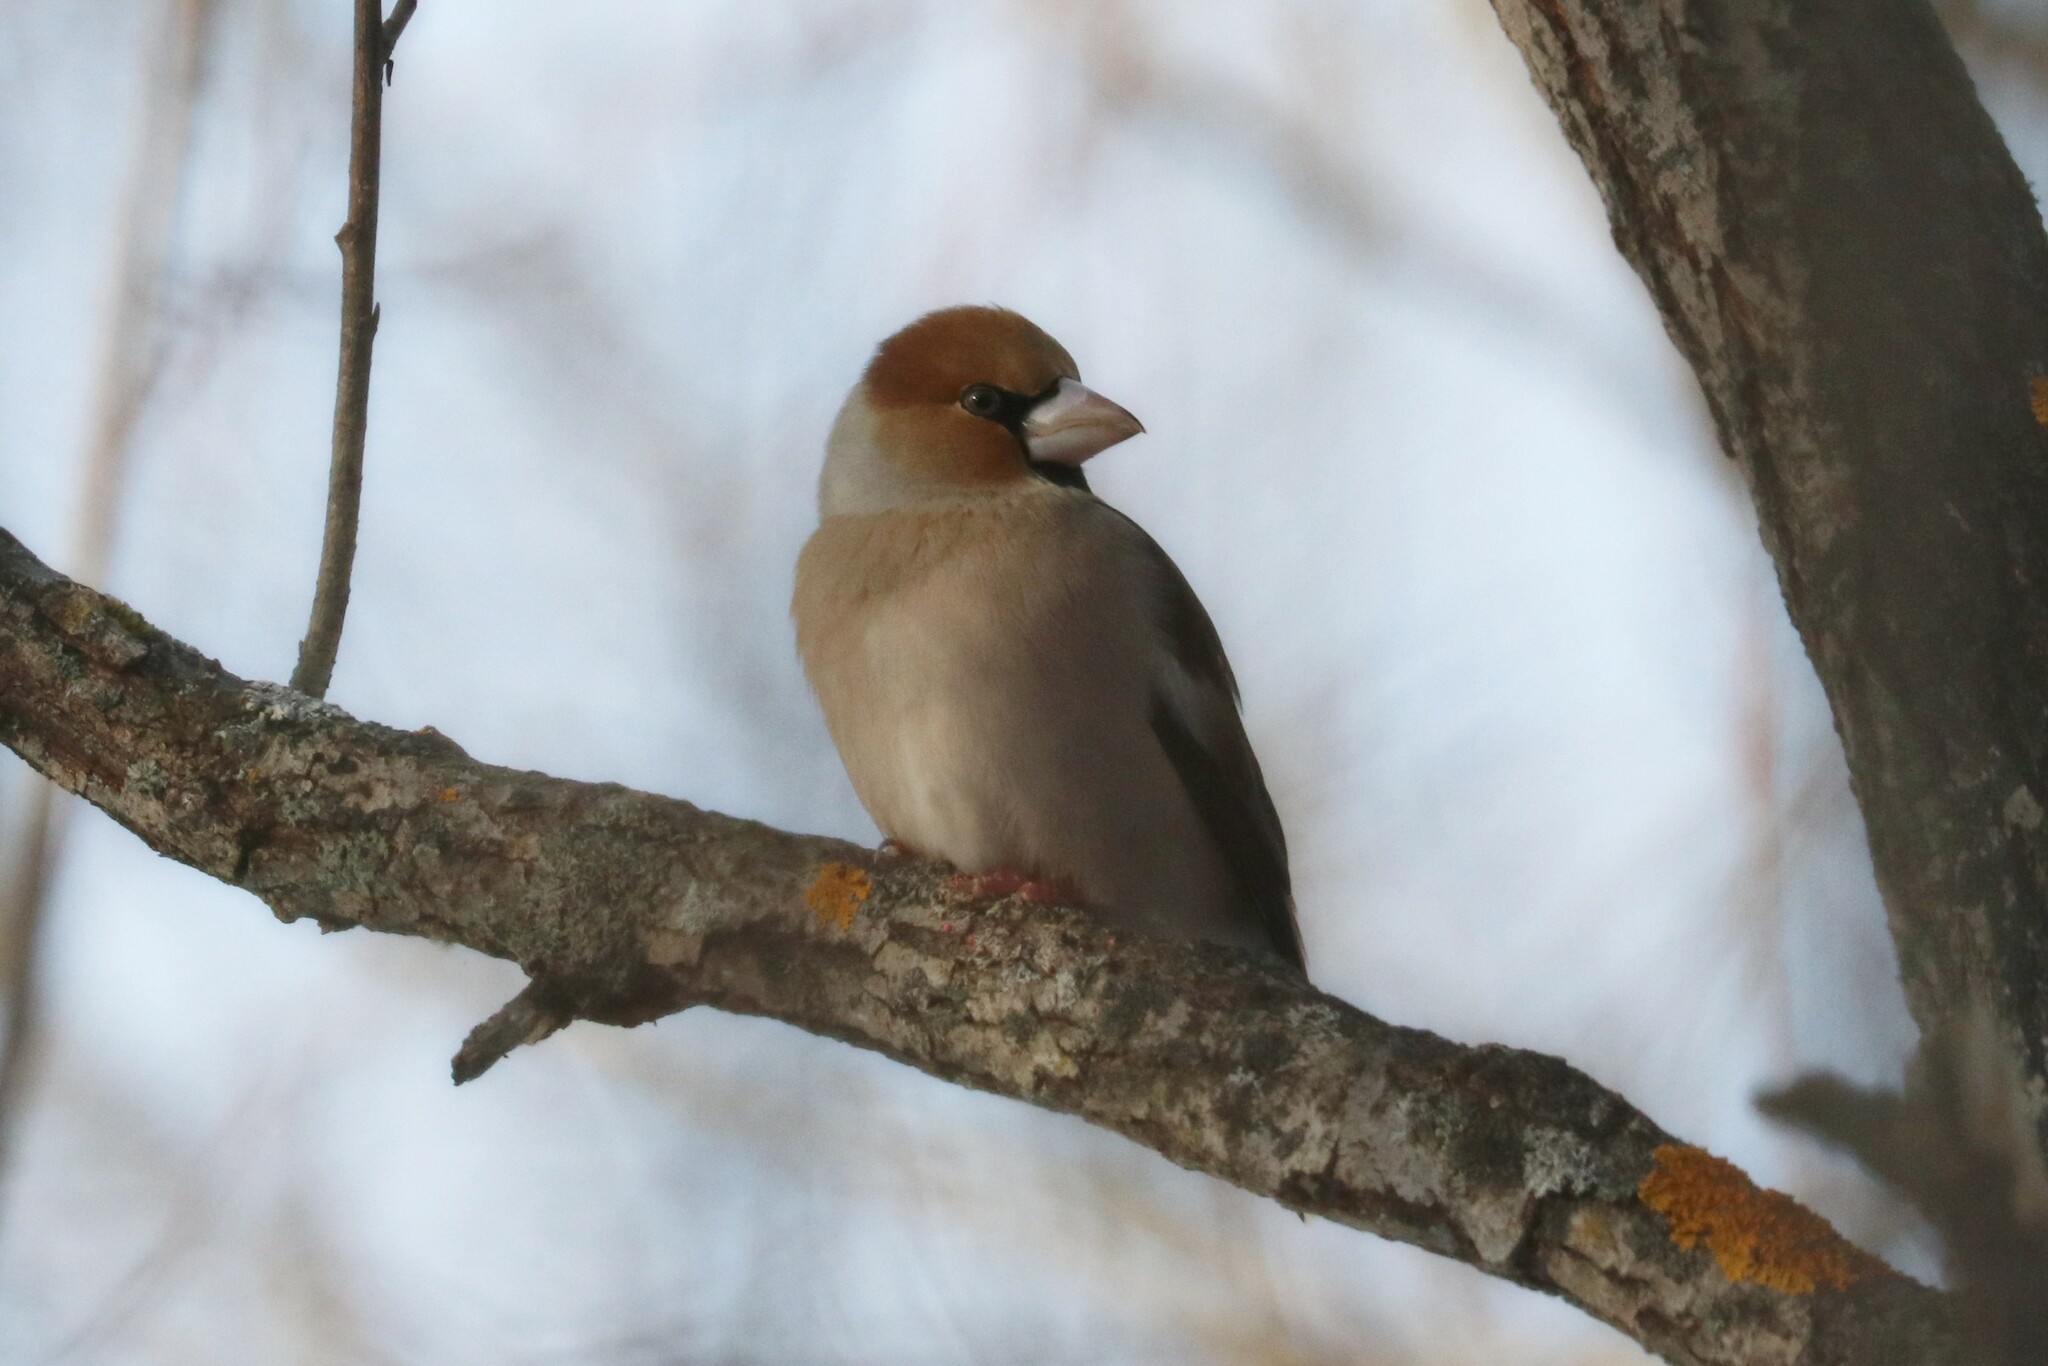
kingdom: Animalia
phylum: Chordata
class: Aves
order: Passeriformes
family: Fringillidae
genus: Coccothraustes
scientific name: Coccothraustes coccothraustes
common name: Hawfinch
